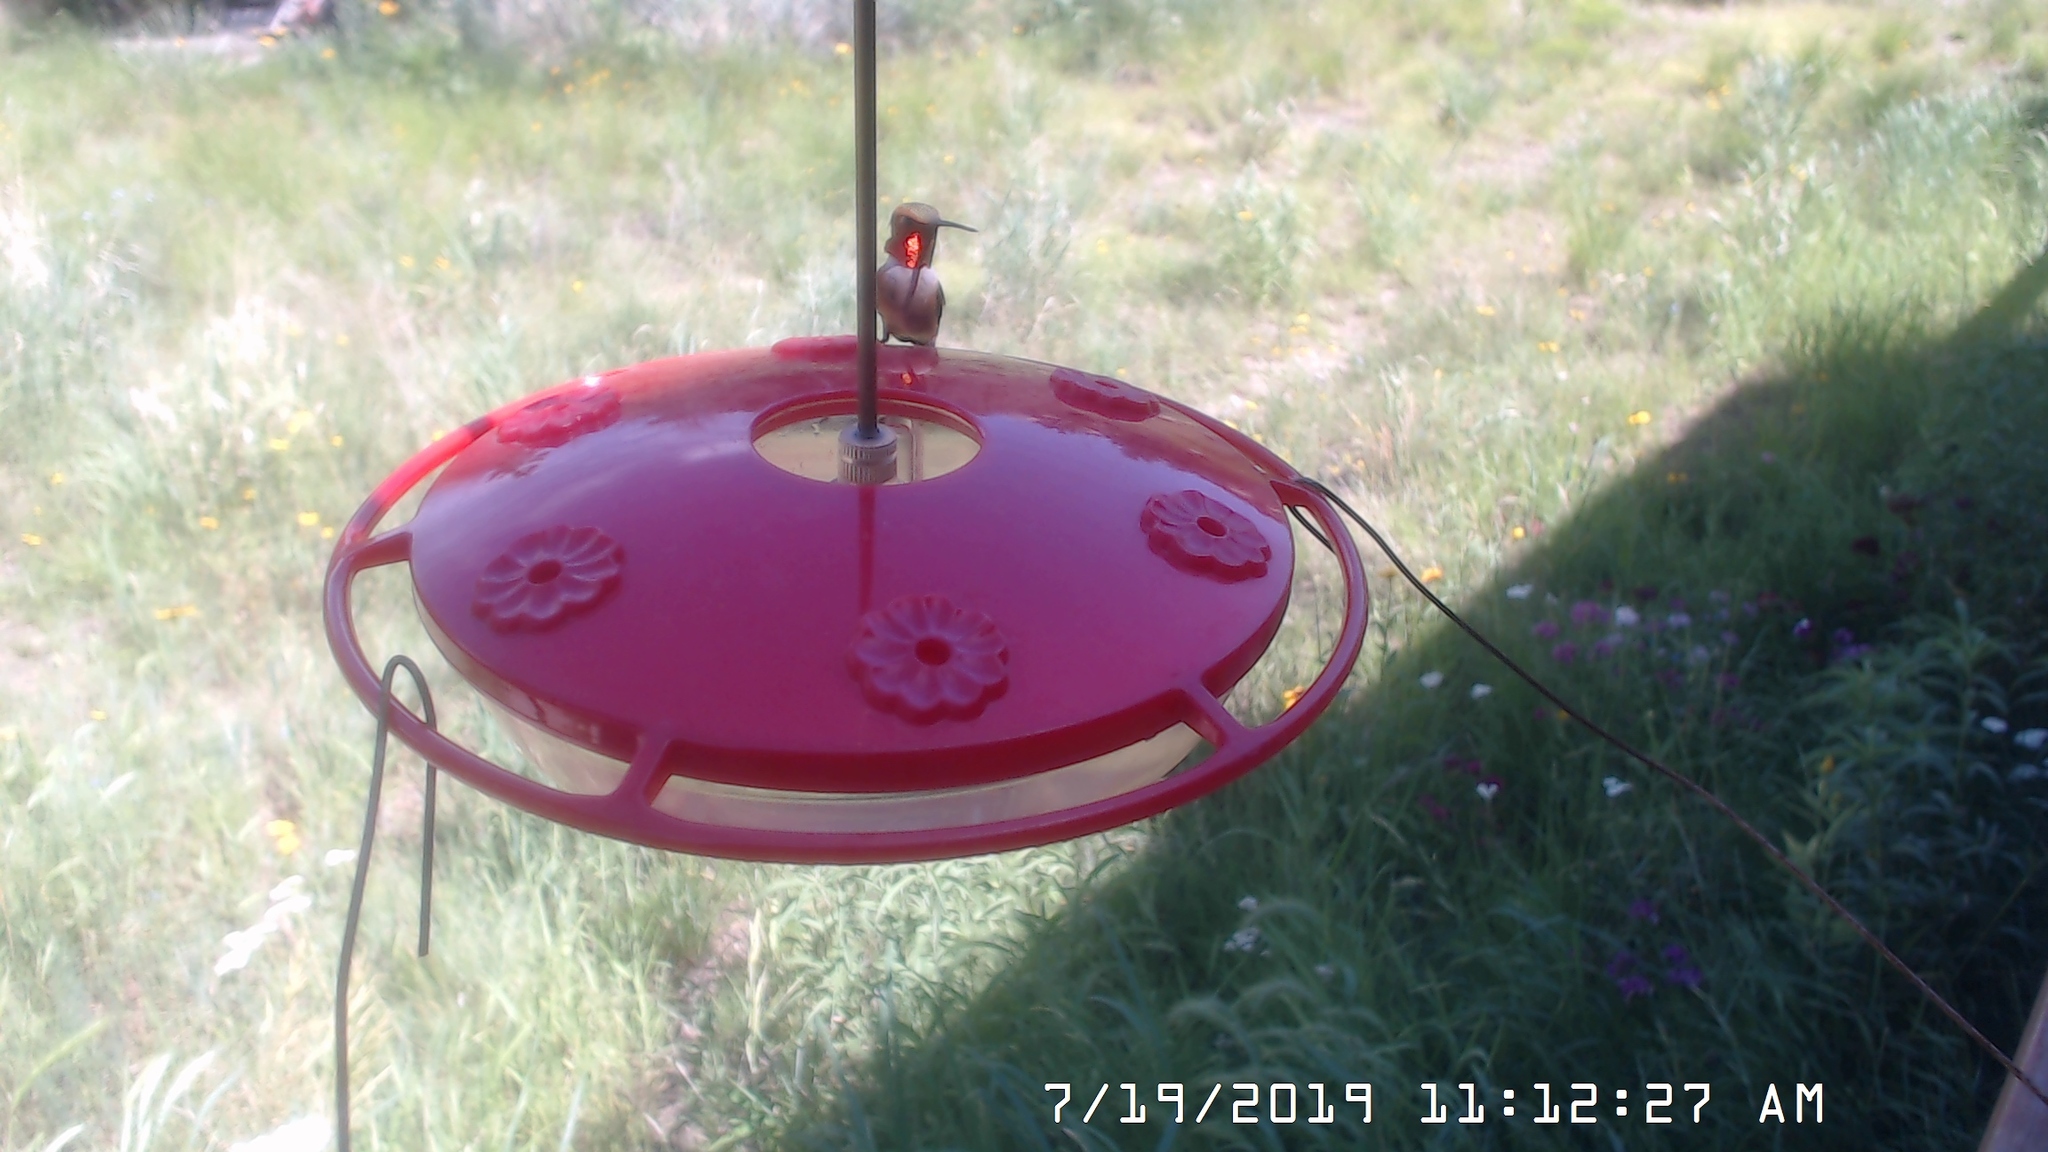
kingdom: Animalia
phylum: Chordata
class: Aves
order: Apodiformes
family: Trochilidae
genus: Selasphorus
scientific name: Selasphorus rufus
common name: Rufous hummingbird
